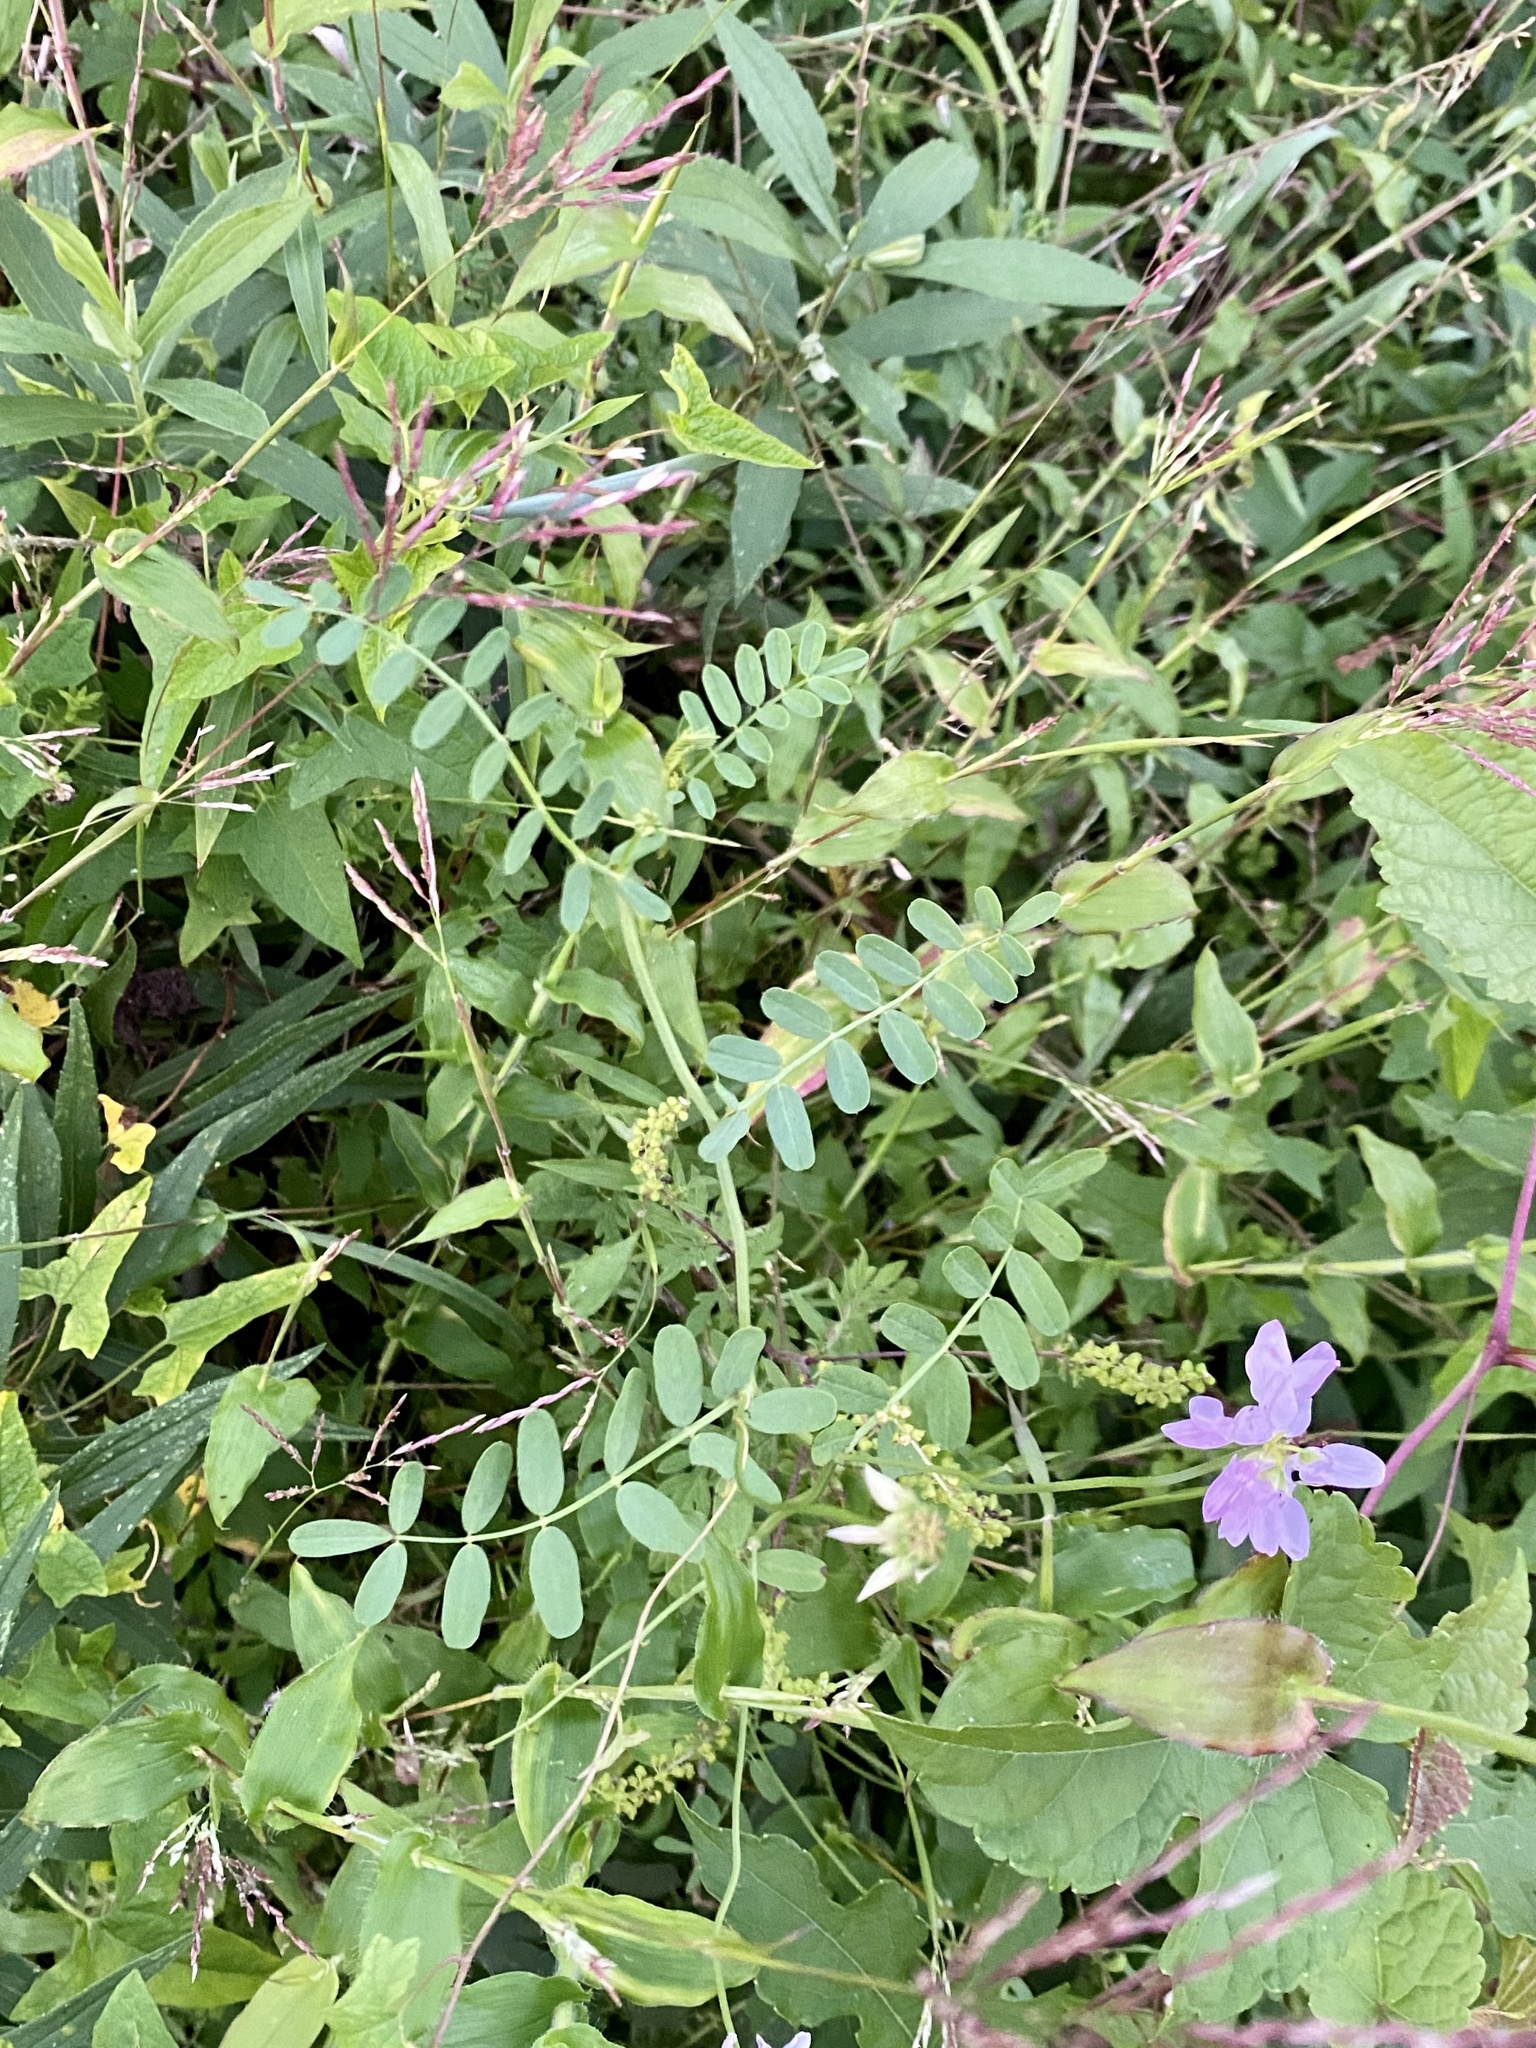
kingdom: Plantae
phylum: Tracheophyta
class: Magnoliopsida
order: Fabales
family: Fabaceae
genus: Coronilla
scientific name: Coronilla varia
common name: Crownvetch
